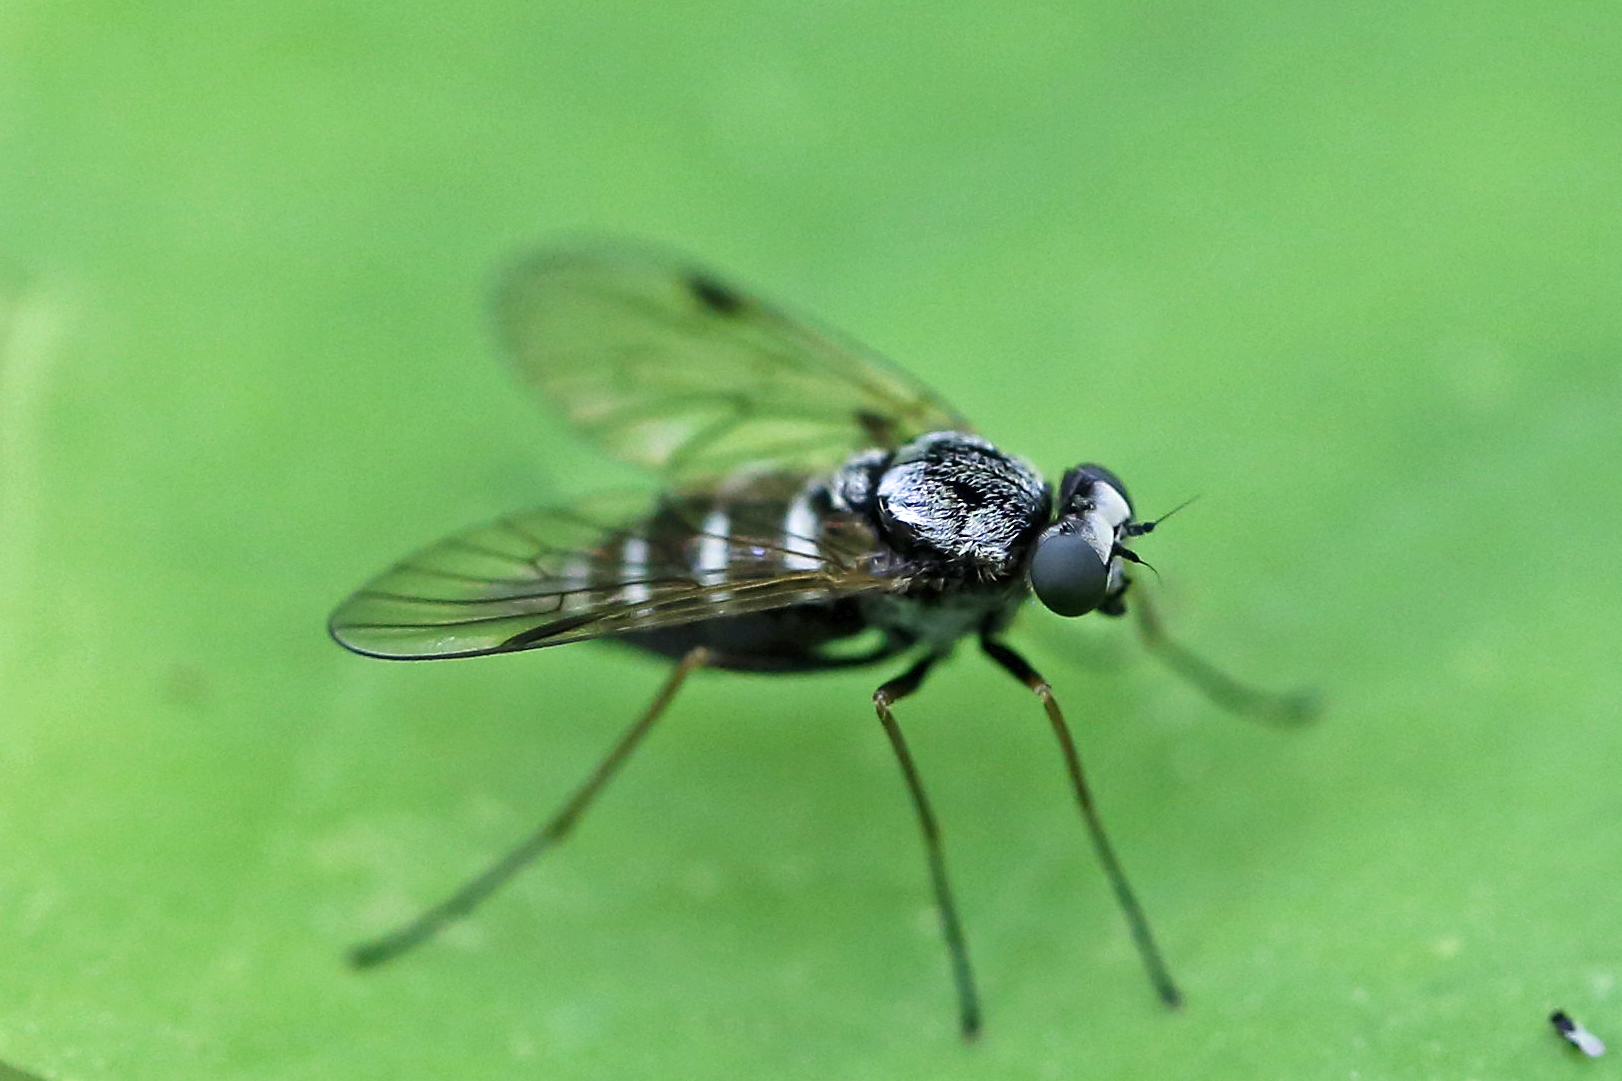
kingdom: Animalia
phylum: Arthropoda
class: Insecta
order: Diptera
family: Rhagionidae
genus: Chrysopilus
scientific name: Chrysopilus fasciatus
